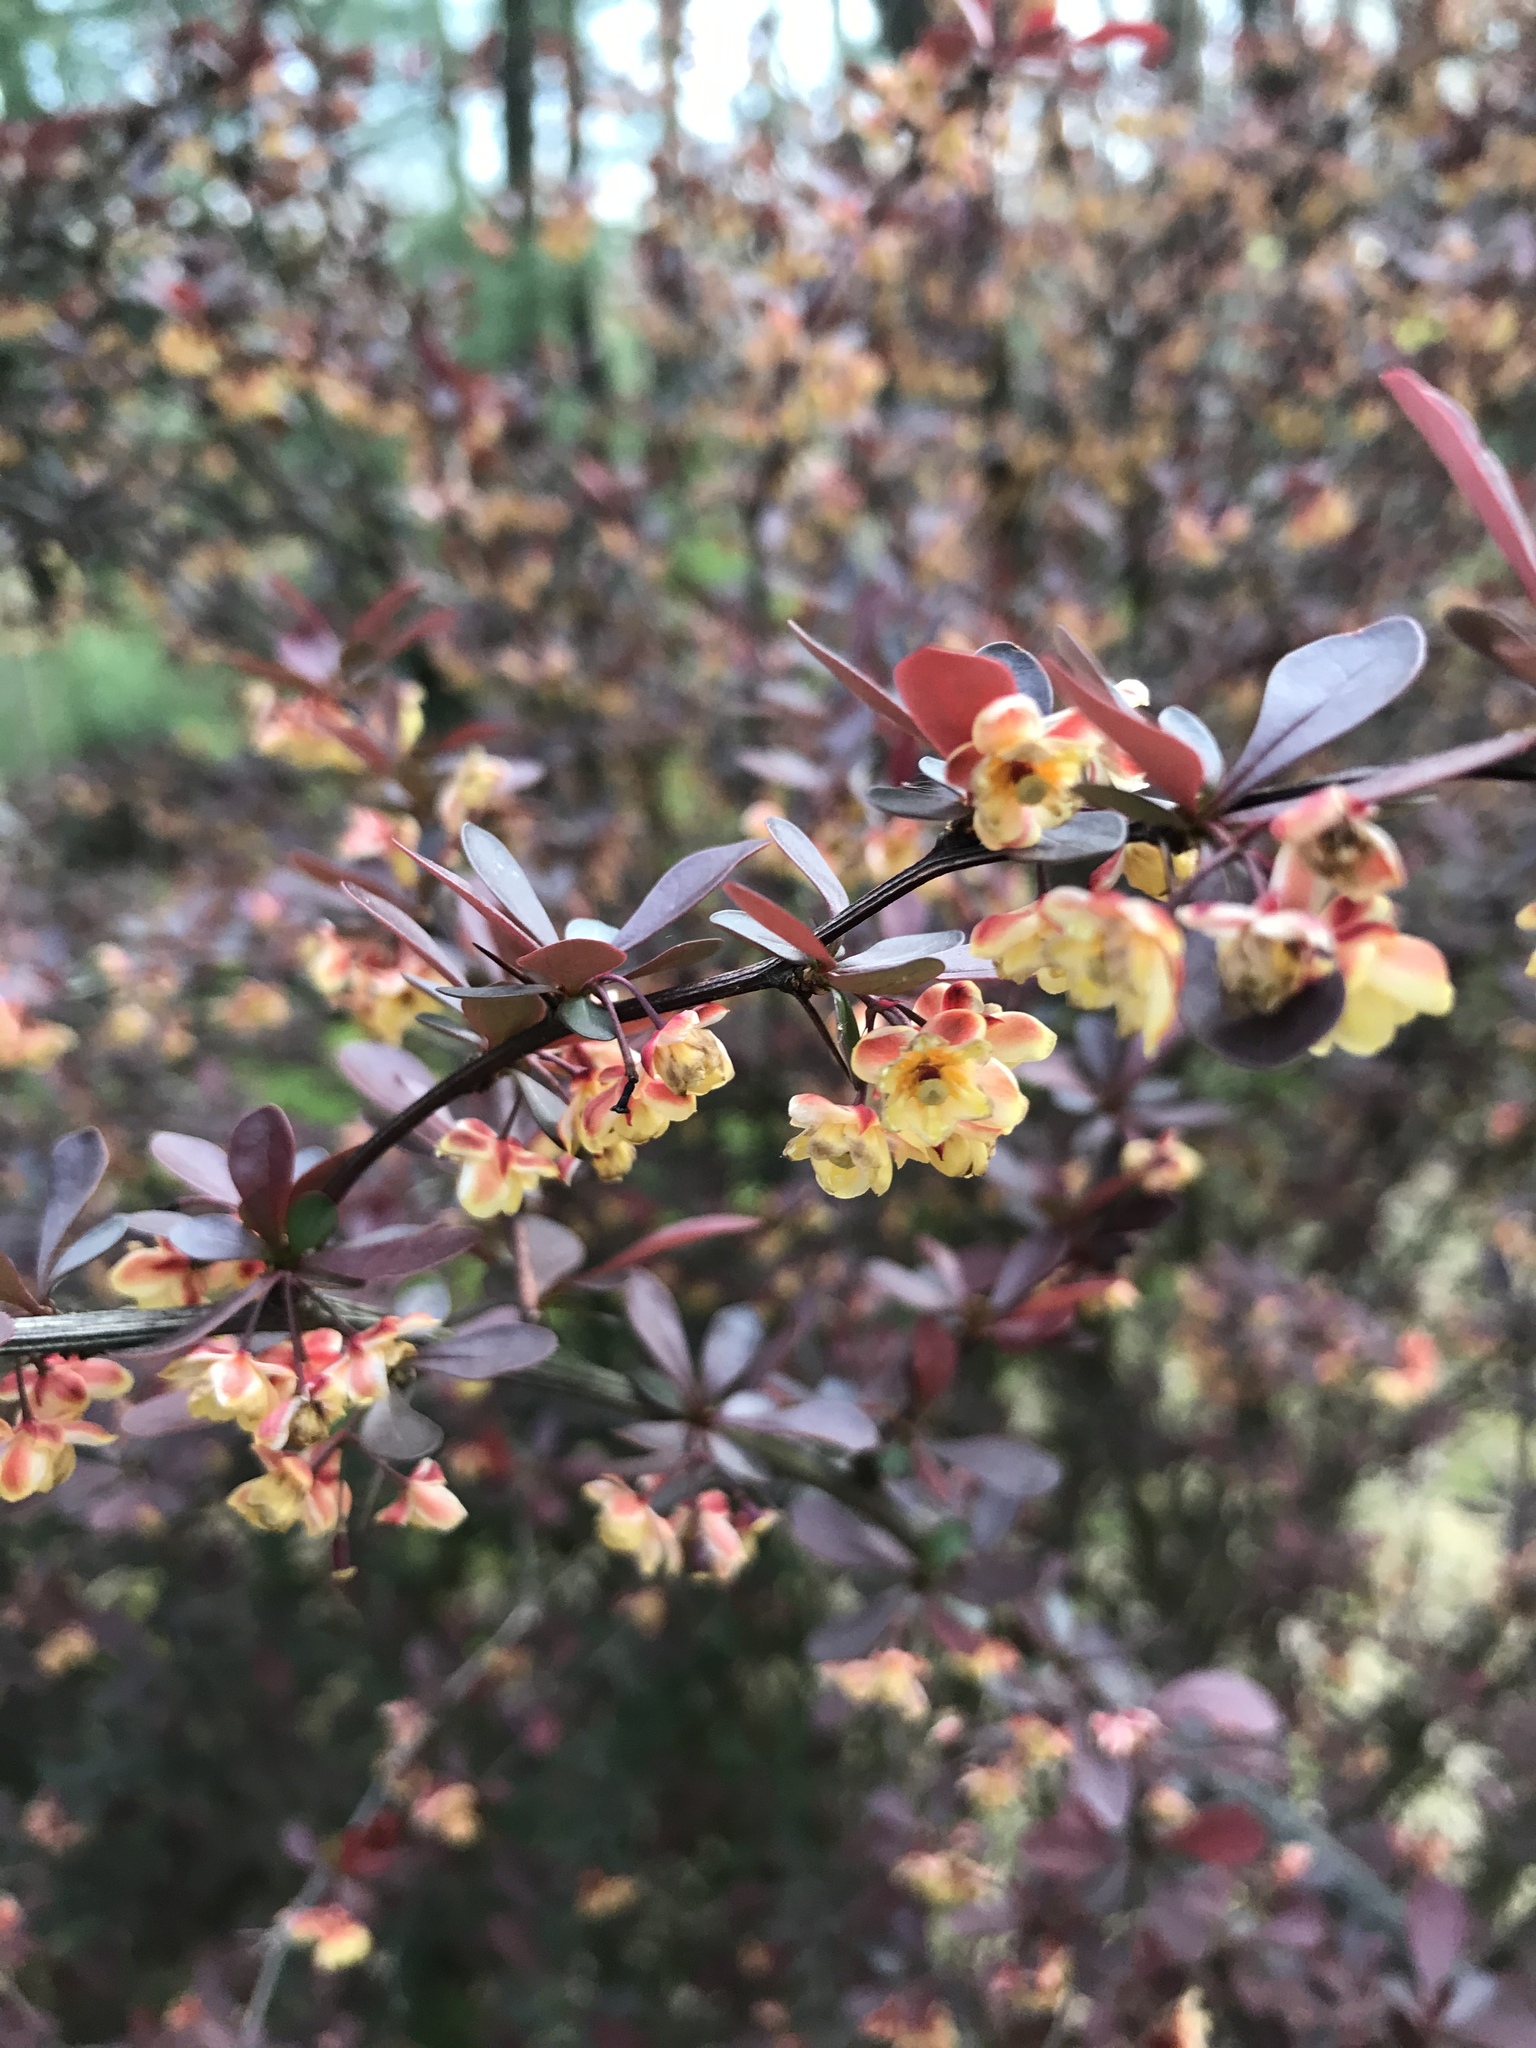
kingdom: Plantae
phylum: Tracheophyta
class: Magnoliopsida
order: Ranunculales
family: Berberidaceae
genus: Berberis
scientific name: Berberis thunbergii
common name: Japanese barberry
